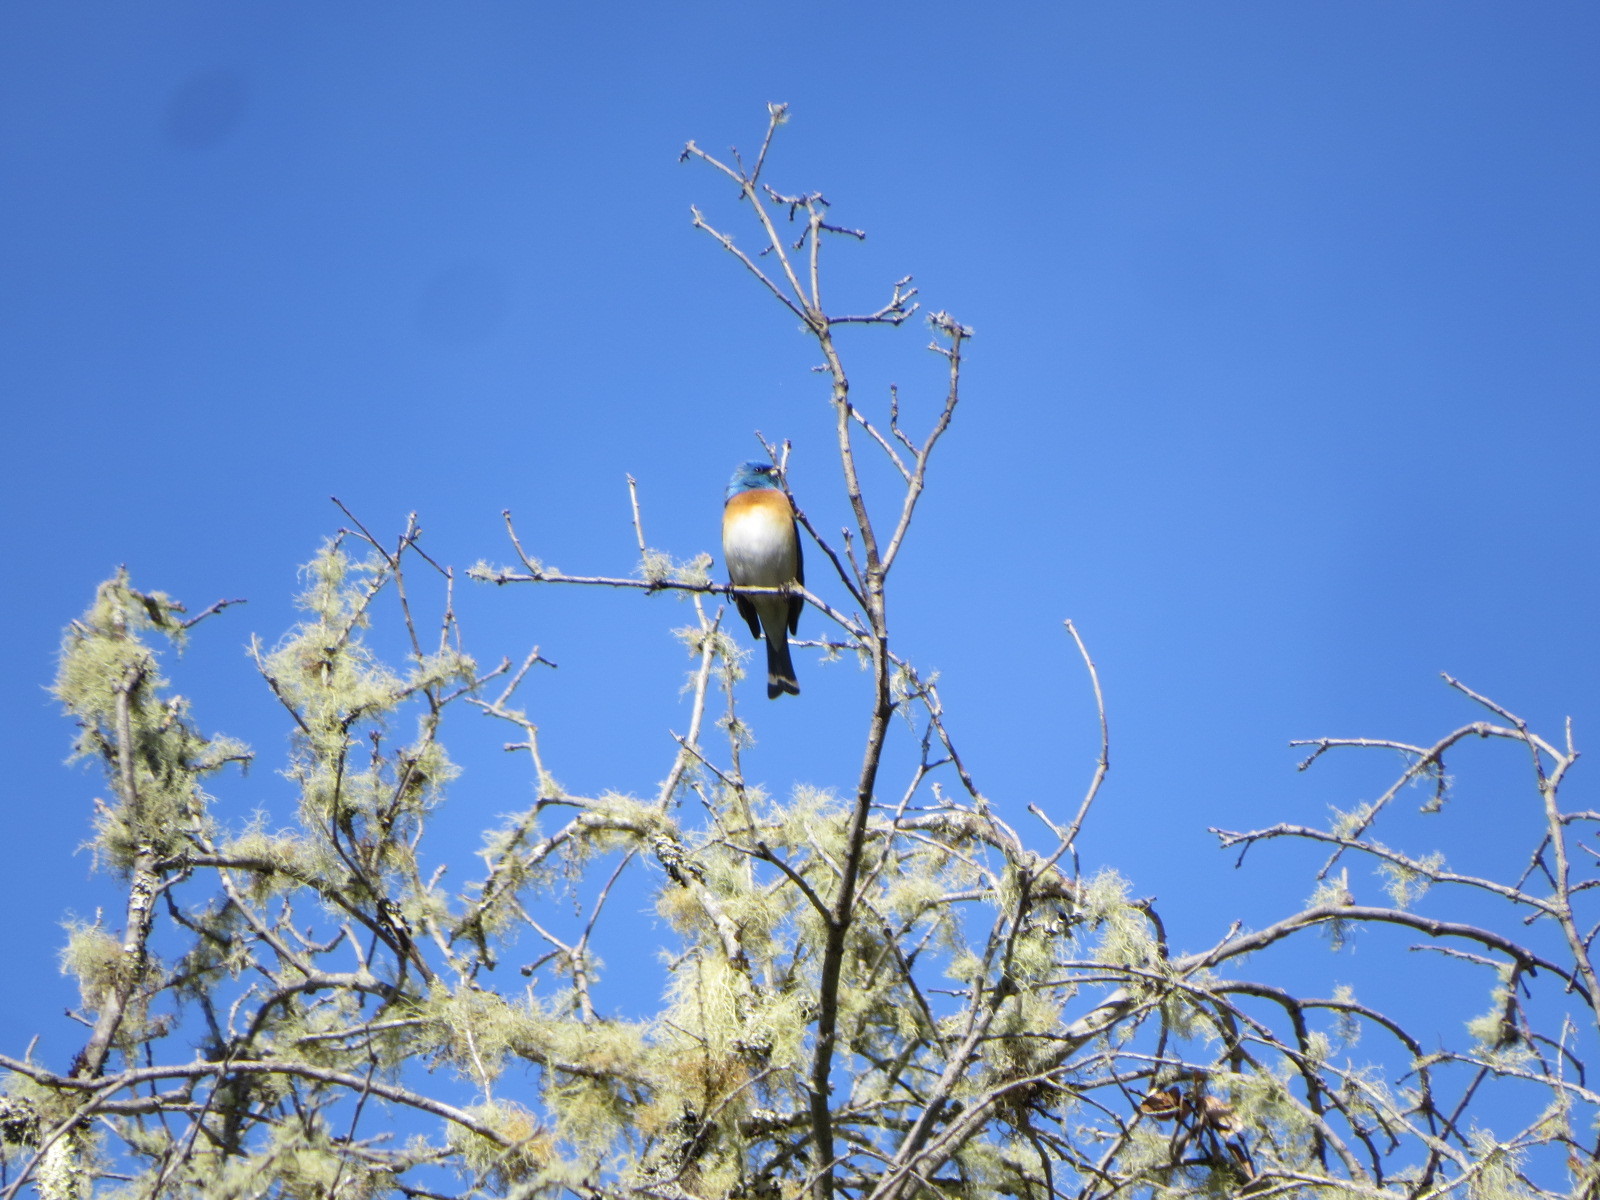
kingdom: Animalia
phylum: Chordata
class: Aves
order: Passeriformes
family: Cardinalidae
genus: Passerina
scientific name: Passerina amoena
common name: Lazuli bunting
